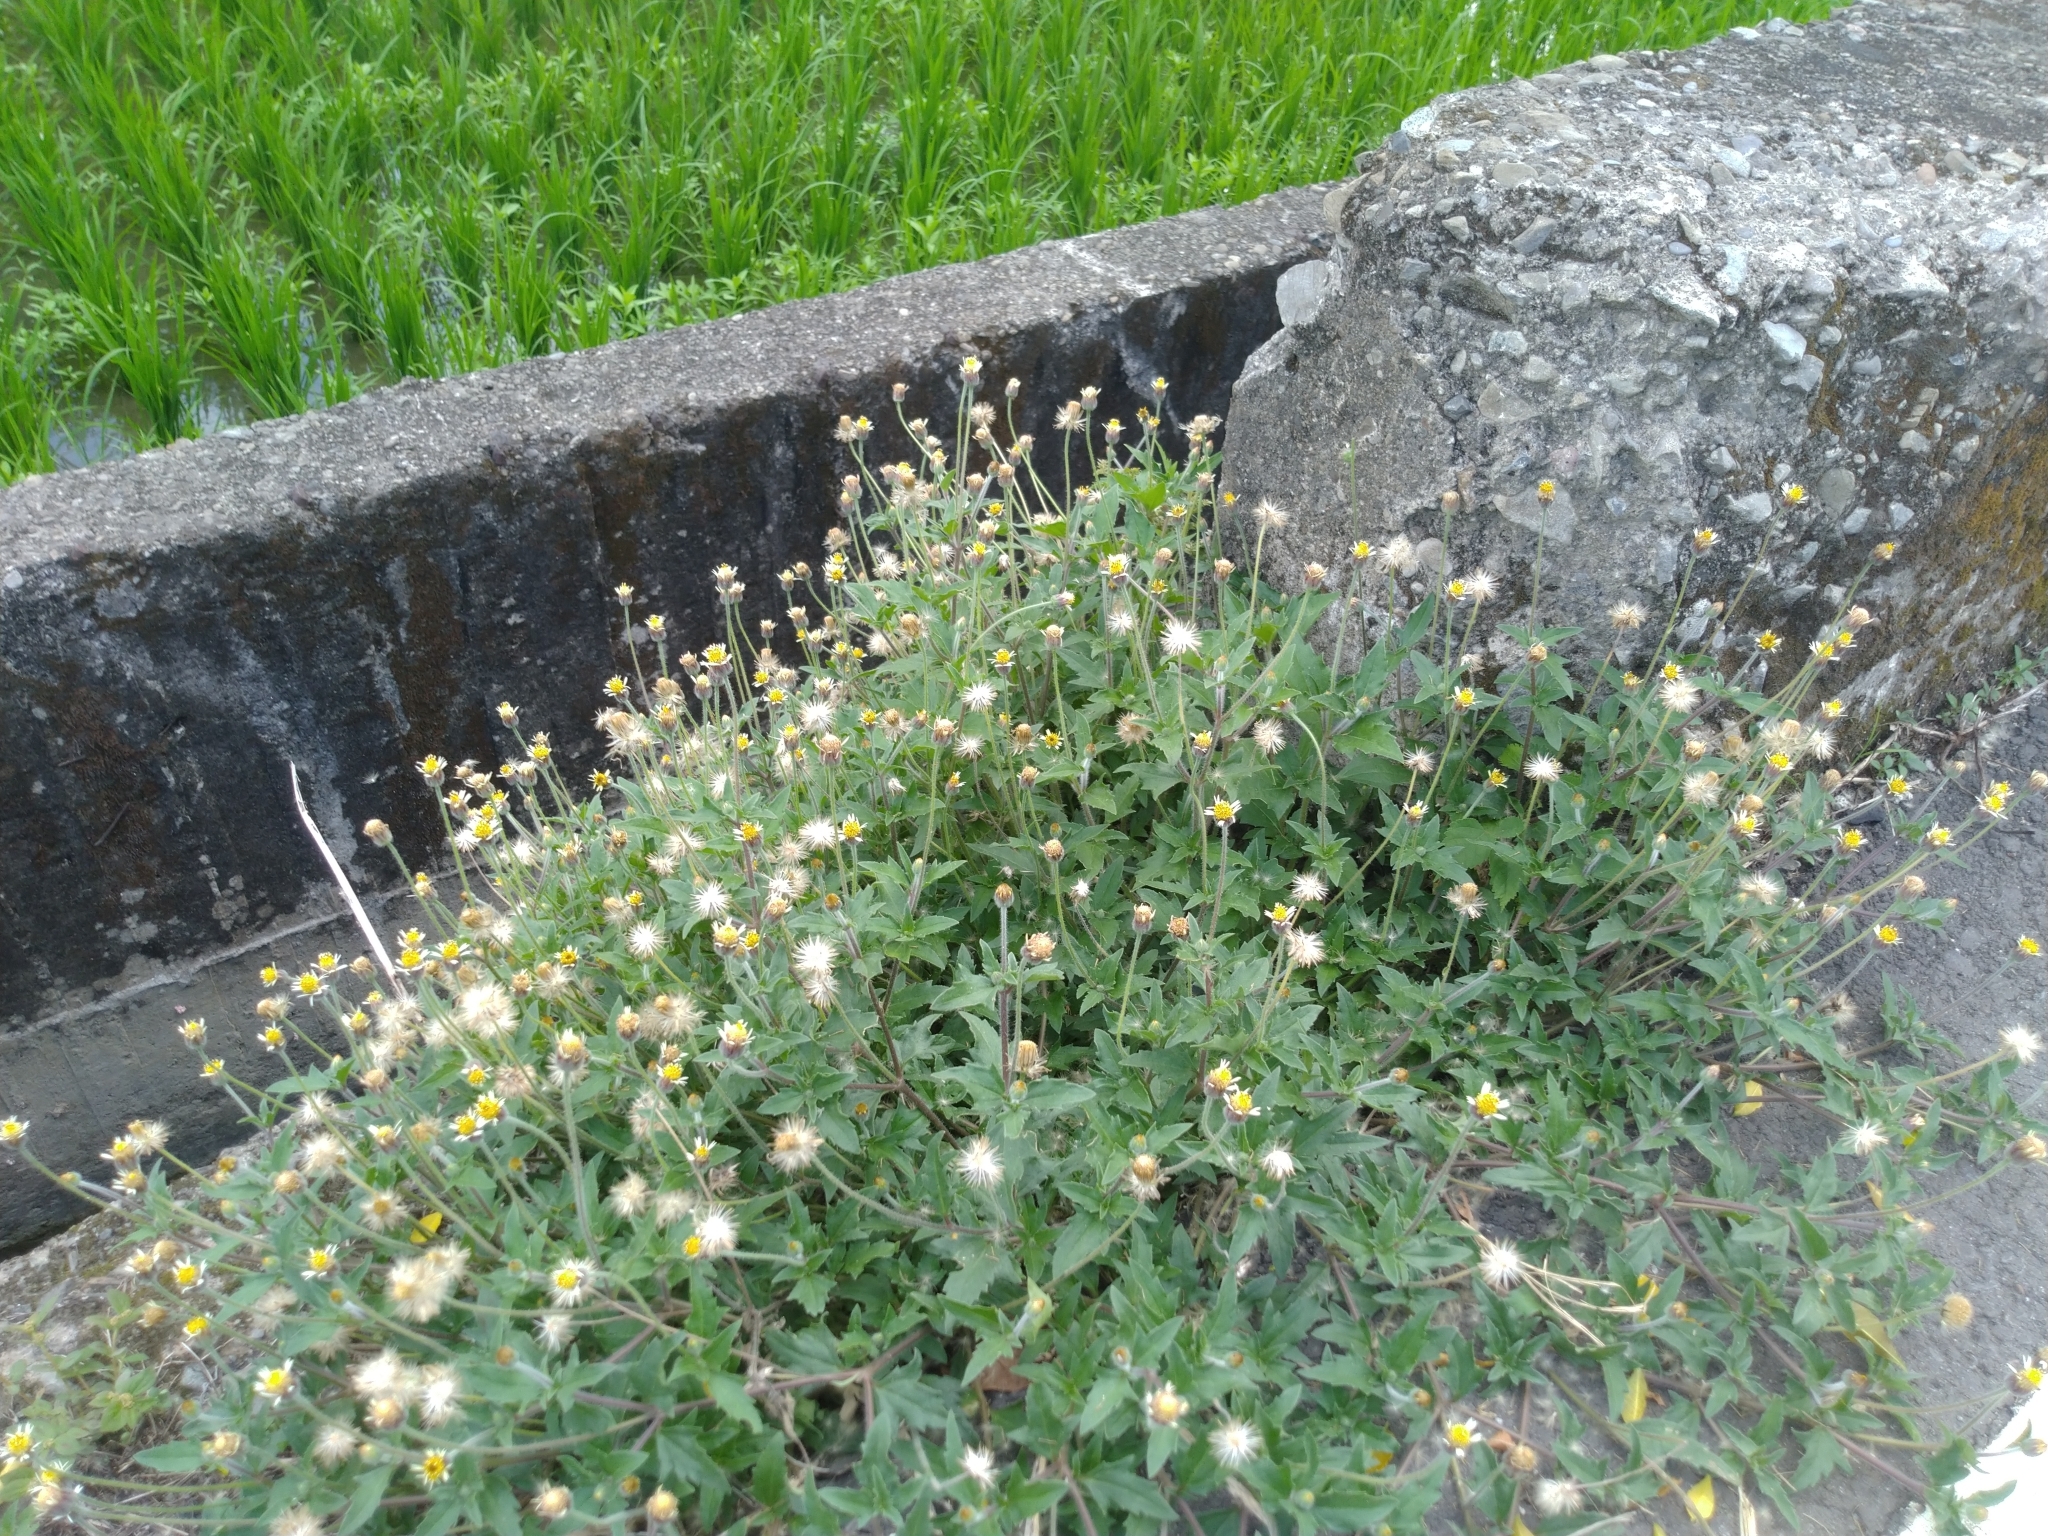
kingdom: Plantae
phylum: Tracheophyta
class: Magnoliopsida
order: Asterales
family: Asteraceae
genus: Tridax
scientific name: Tridax procumbens
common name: Coatbuttons
